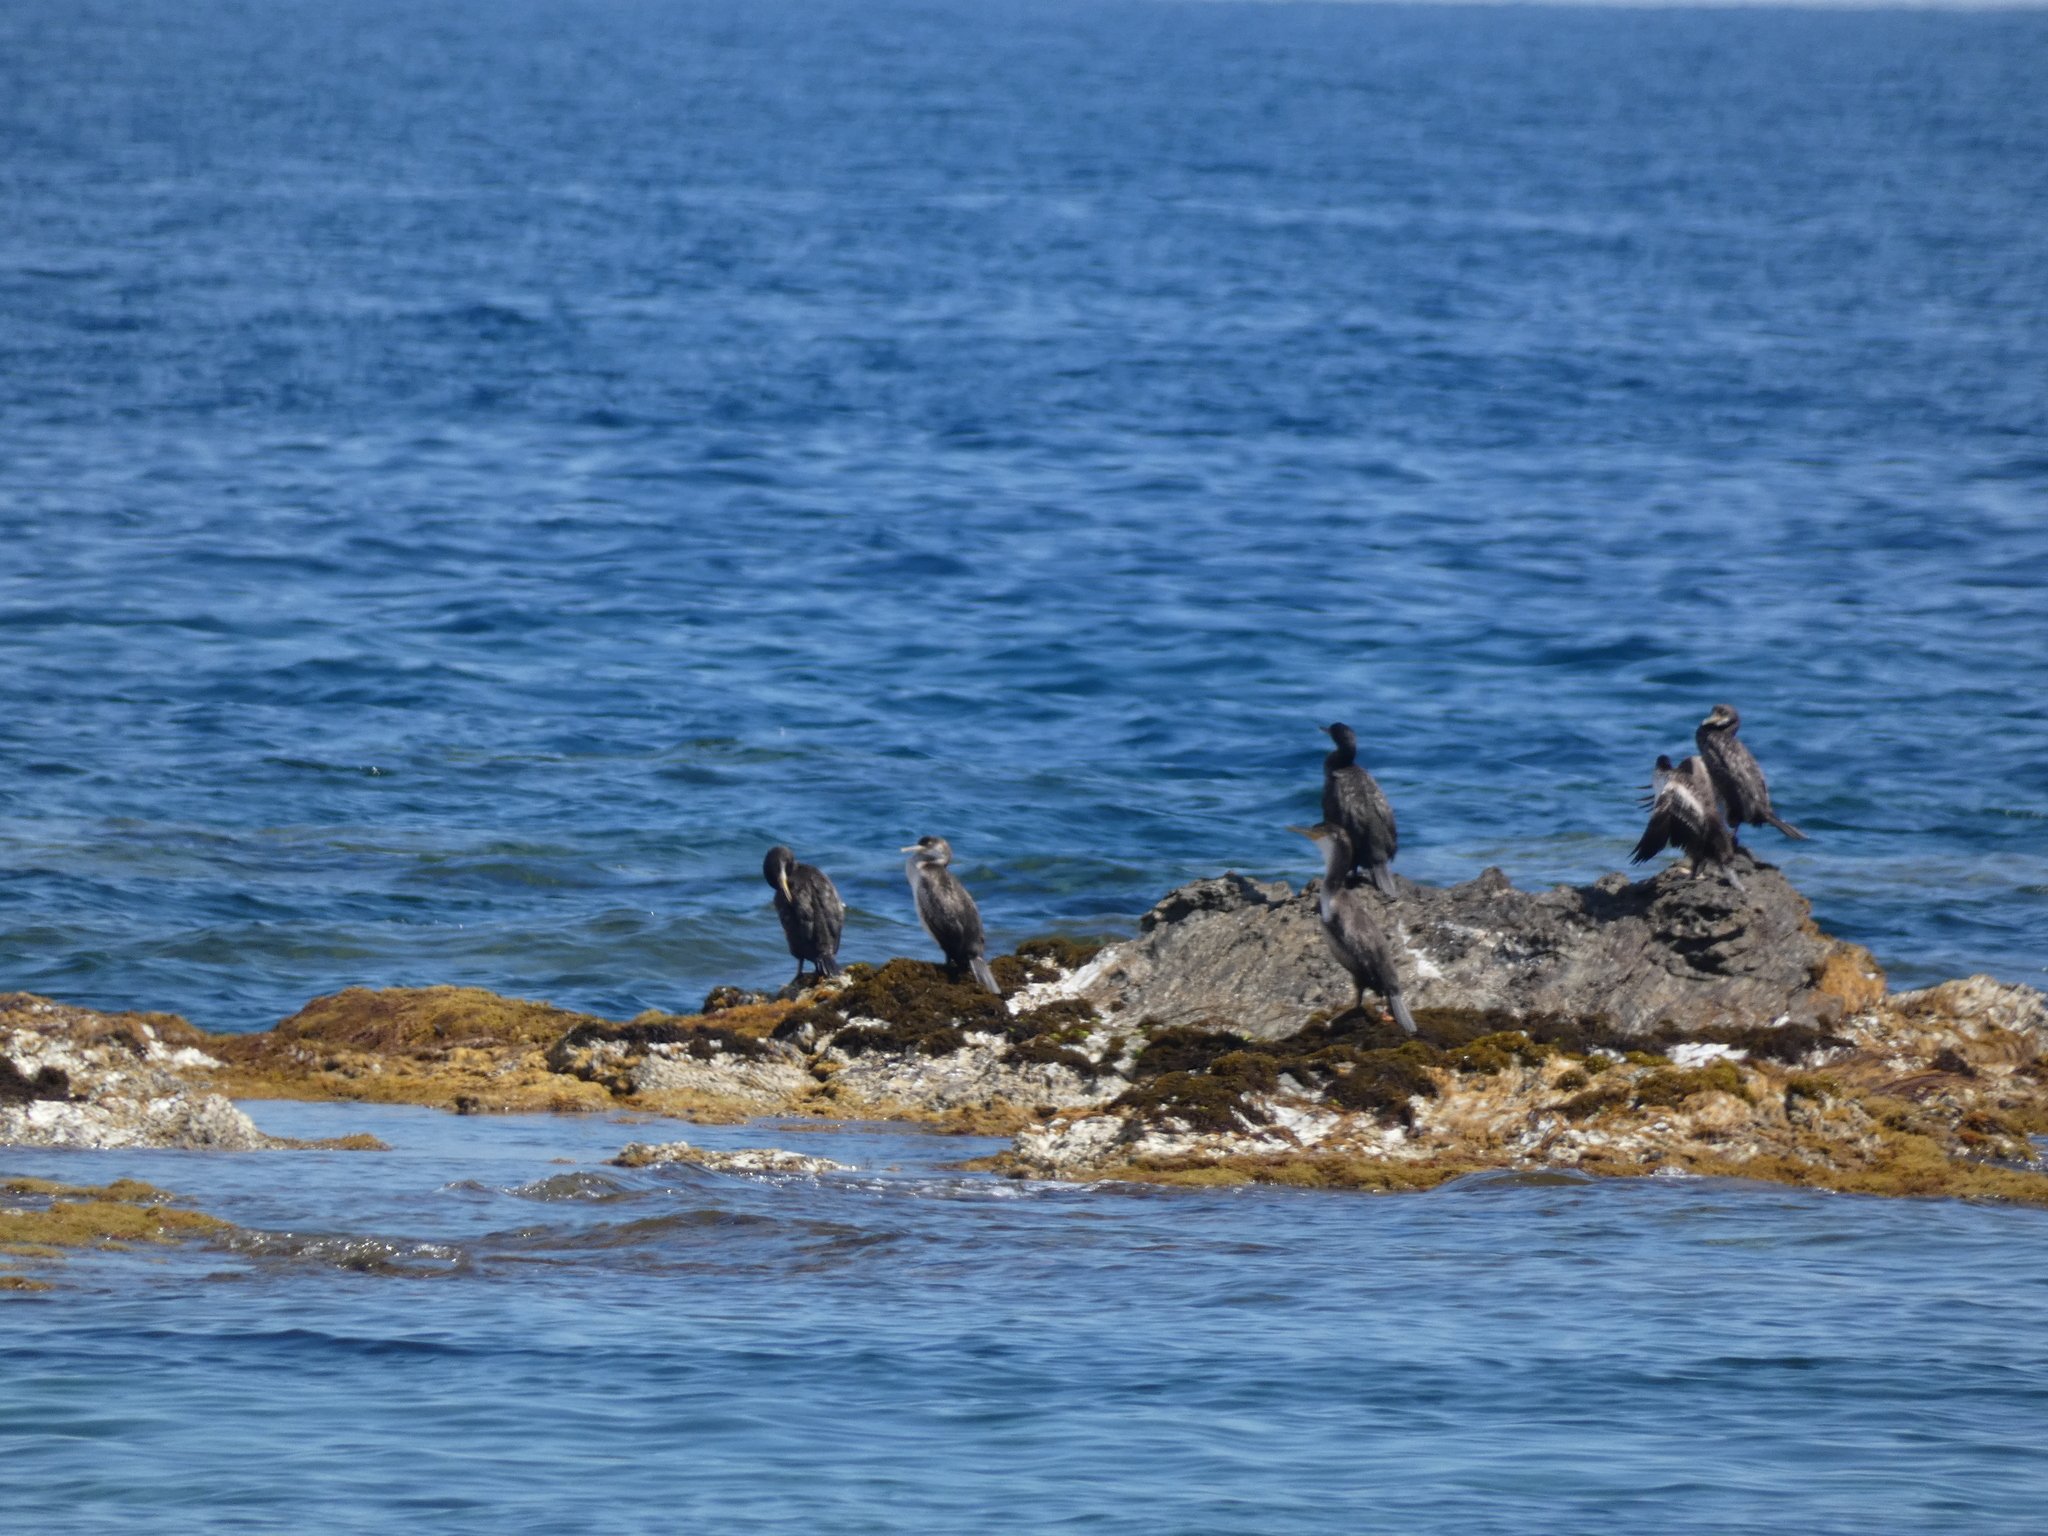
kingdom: Animalia
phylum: Chordata
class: Aves
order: Suliformes
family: Phalacrocoracidae
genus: Phalacrocorax
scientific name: Phalacrocorax aristotelis
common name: European shag
